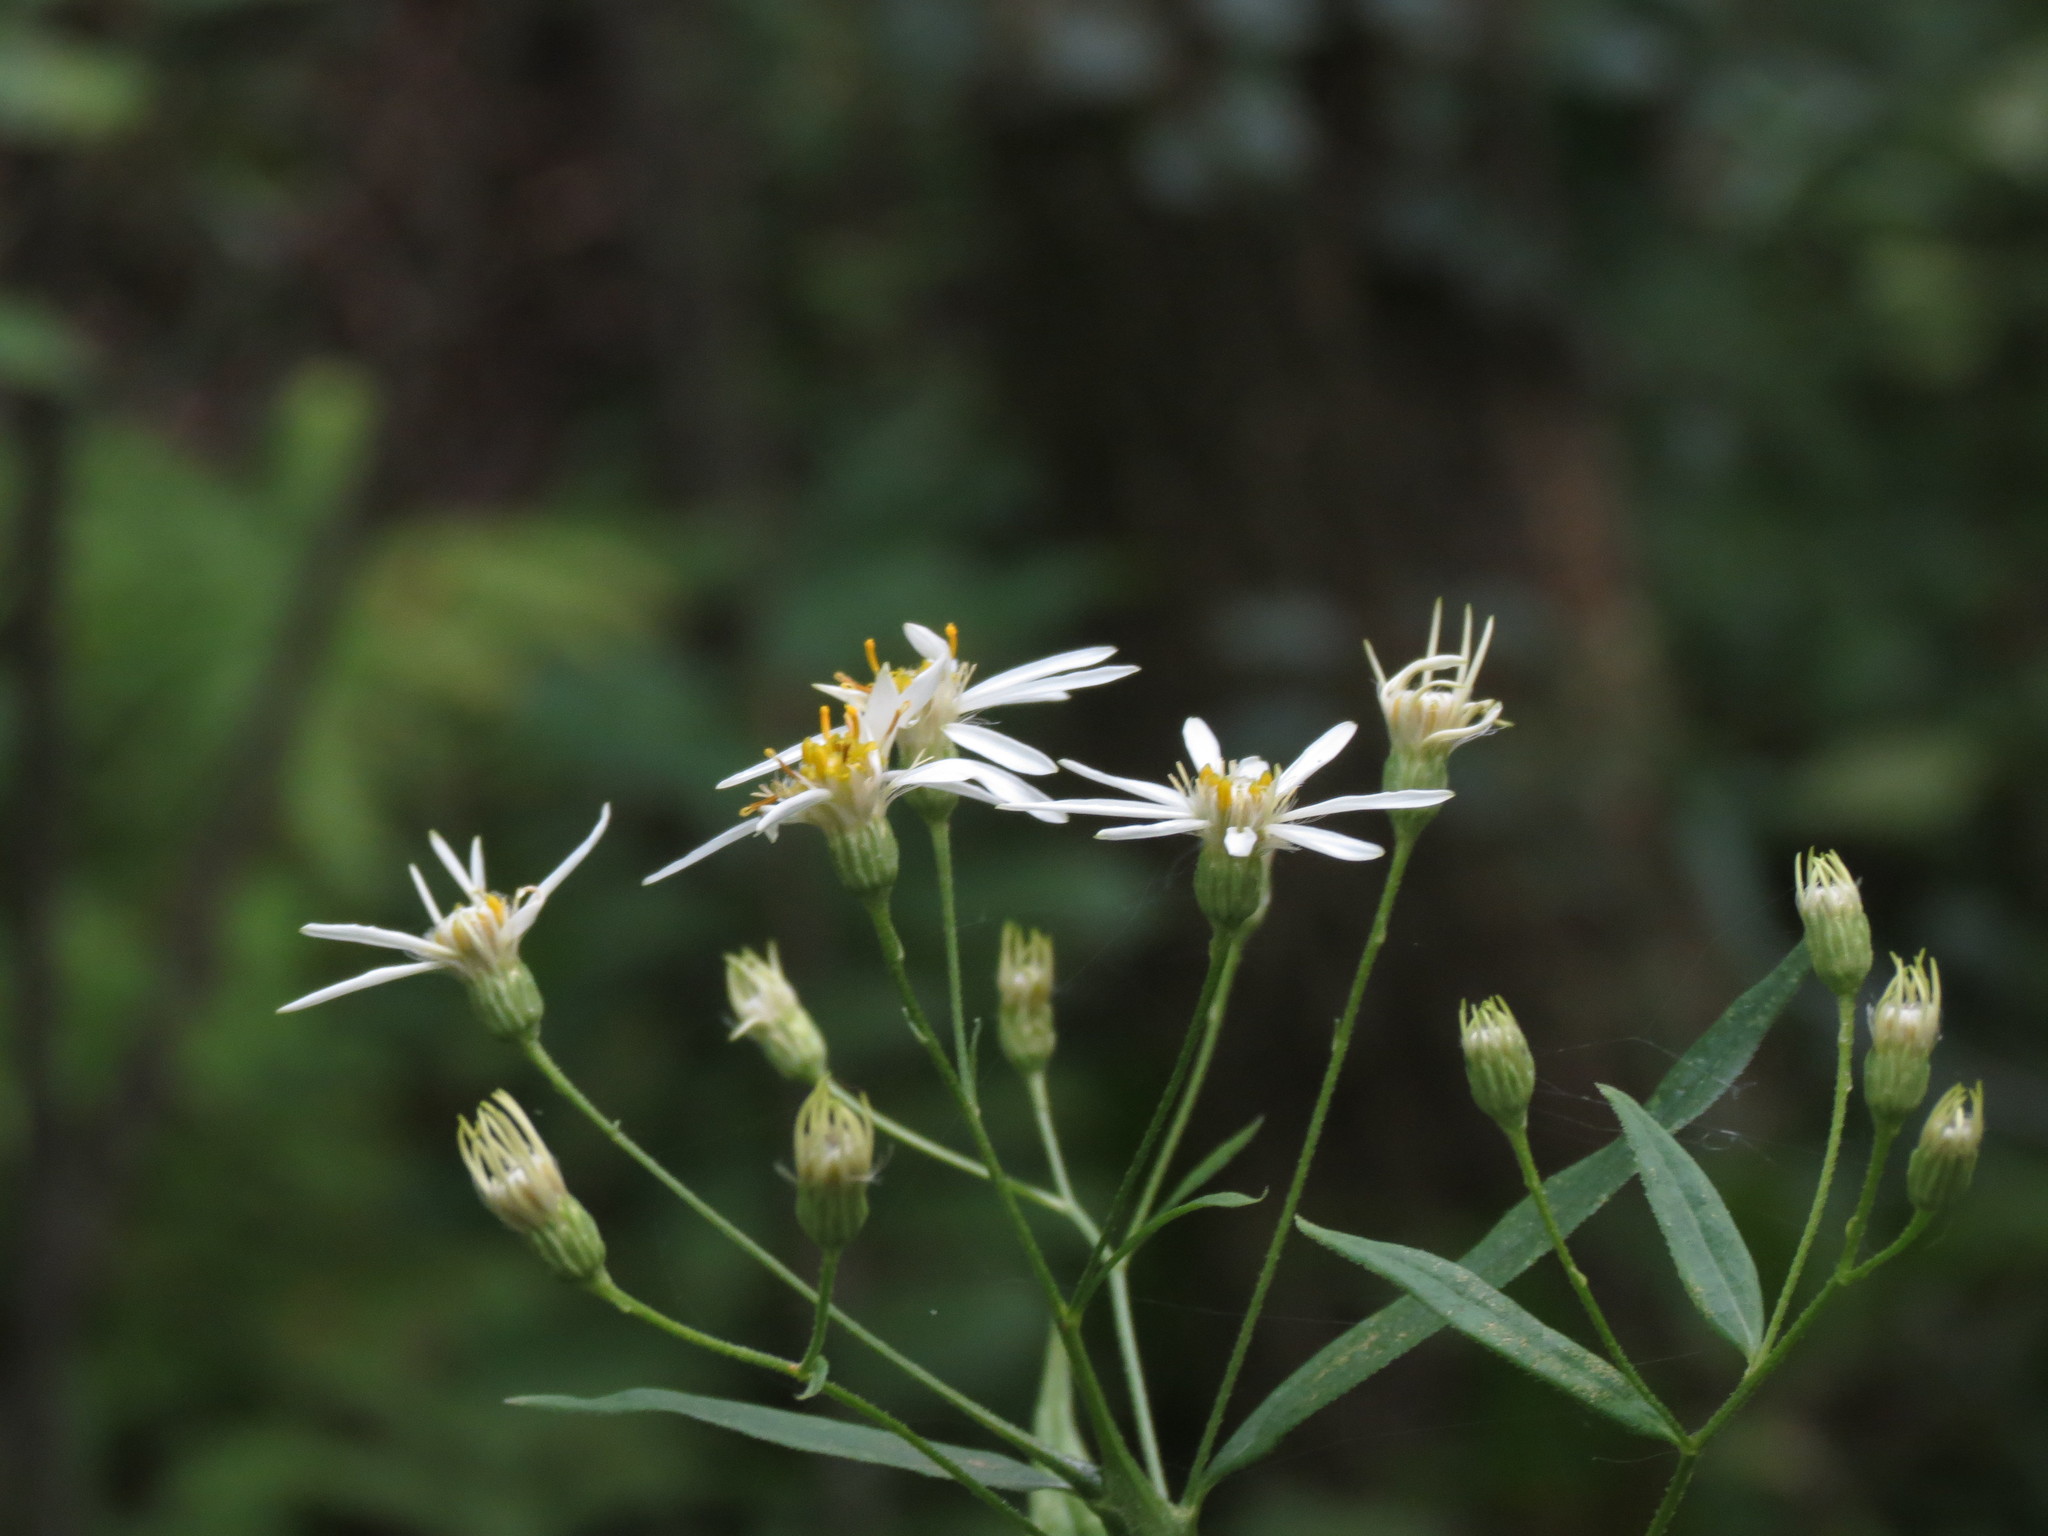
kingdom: Plantae
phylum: Tracheophyta
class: Magnoliopsida
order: Asterales
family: Asteraceae
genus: Doellingeria
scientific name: Doellingeria umbellata
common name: Flat-top white aster
